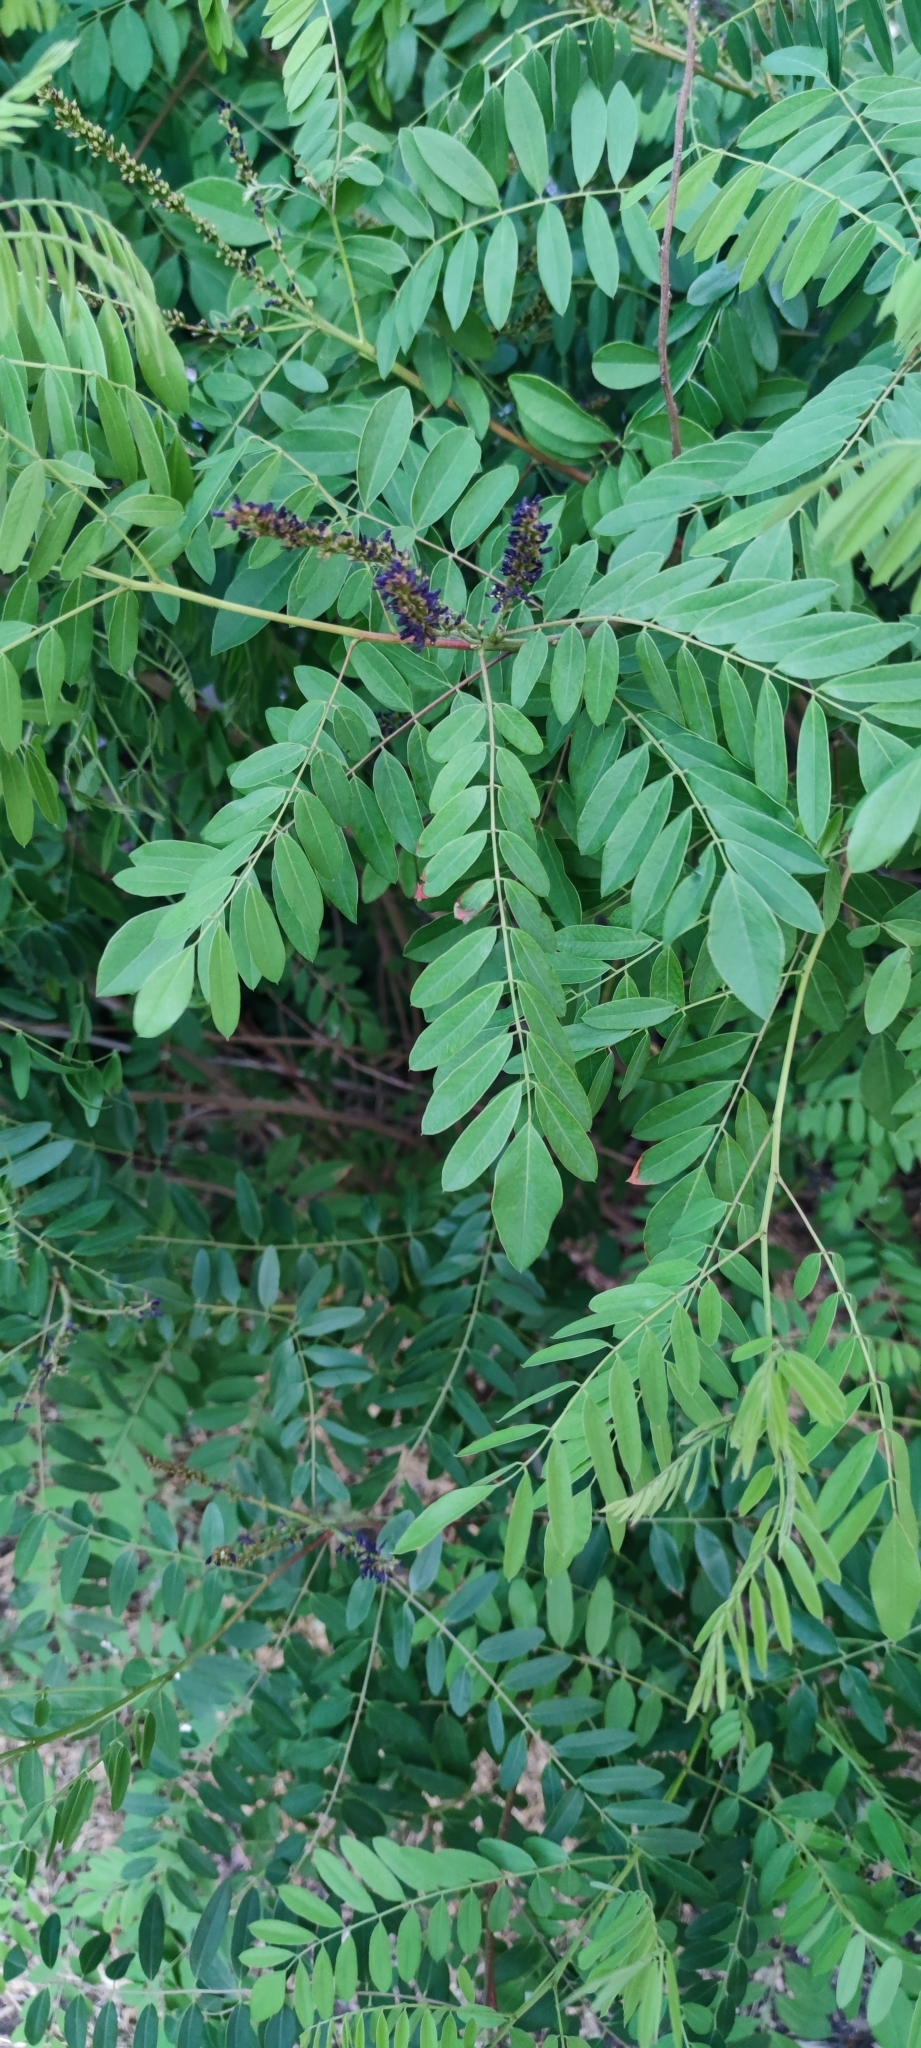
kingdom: Plantae
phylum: Tracheophyta
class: Magnoliopsida
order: Fabales
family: Fabaceae
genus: Amorpha
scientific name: Amorpha fruticosa
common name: False indigo
